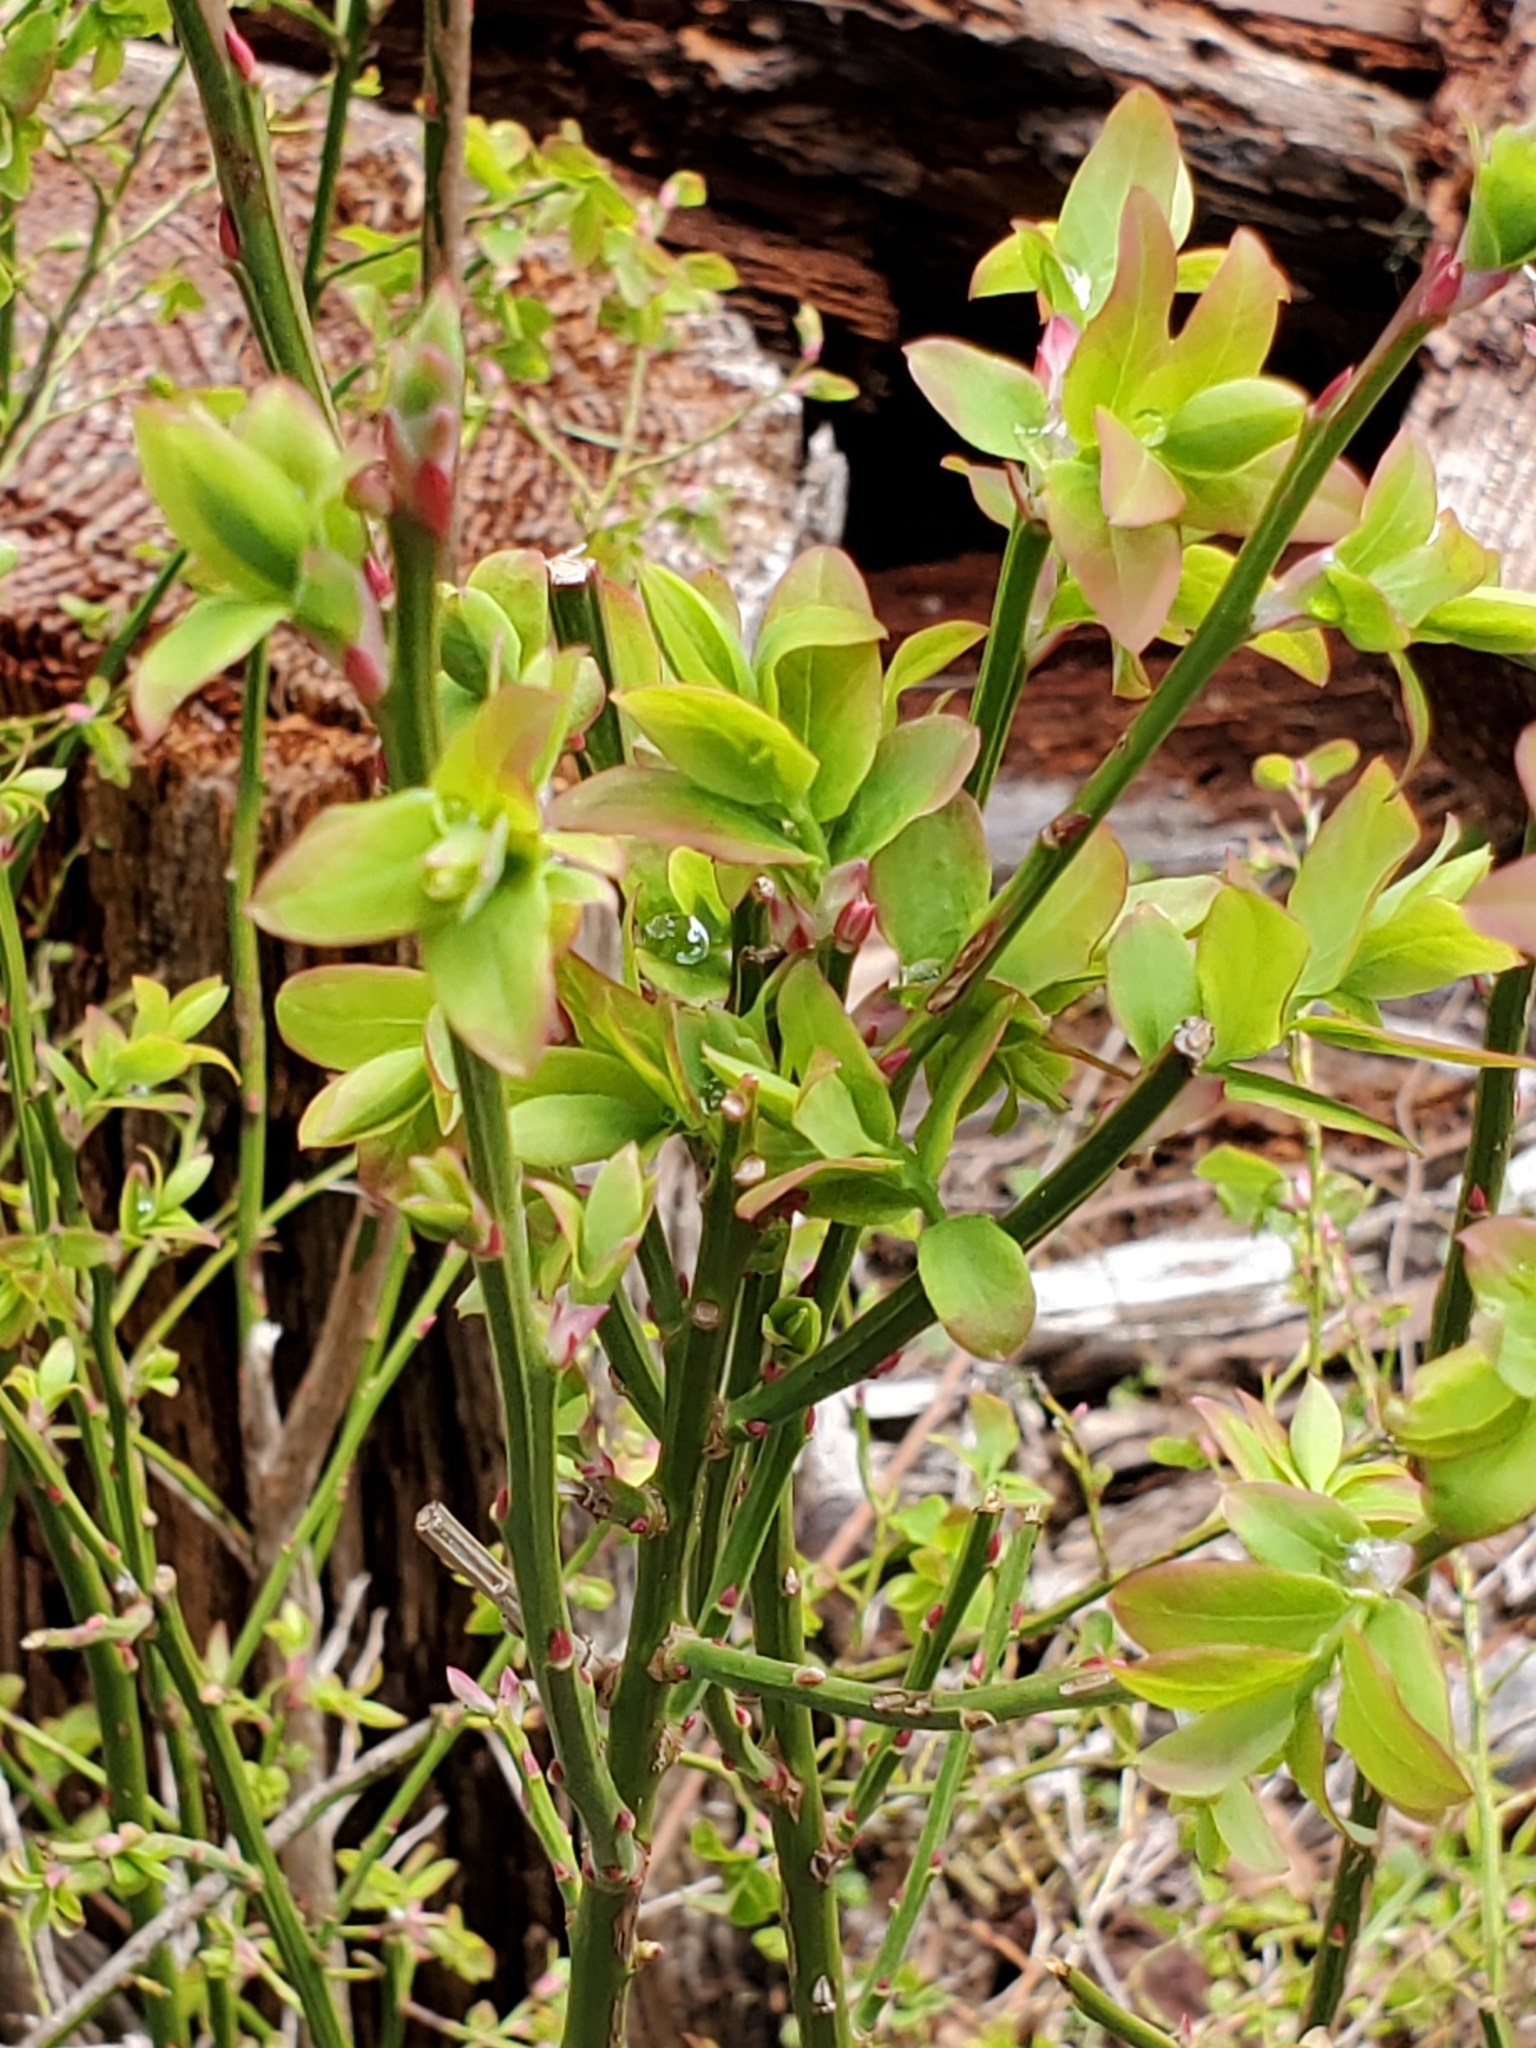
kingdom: Plantae
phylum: Tracheophyta
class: Magnoliopsida
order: Ericales
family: Ericaceae
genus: Vaccinium
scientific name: Vaccinium parvifolium
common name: Red-huckleberry
